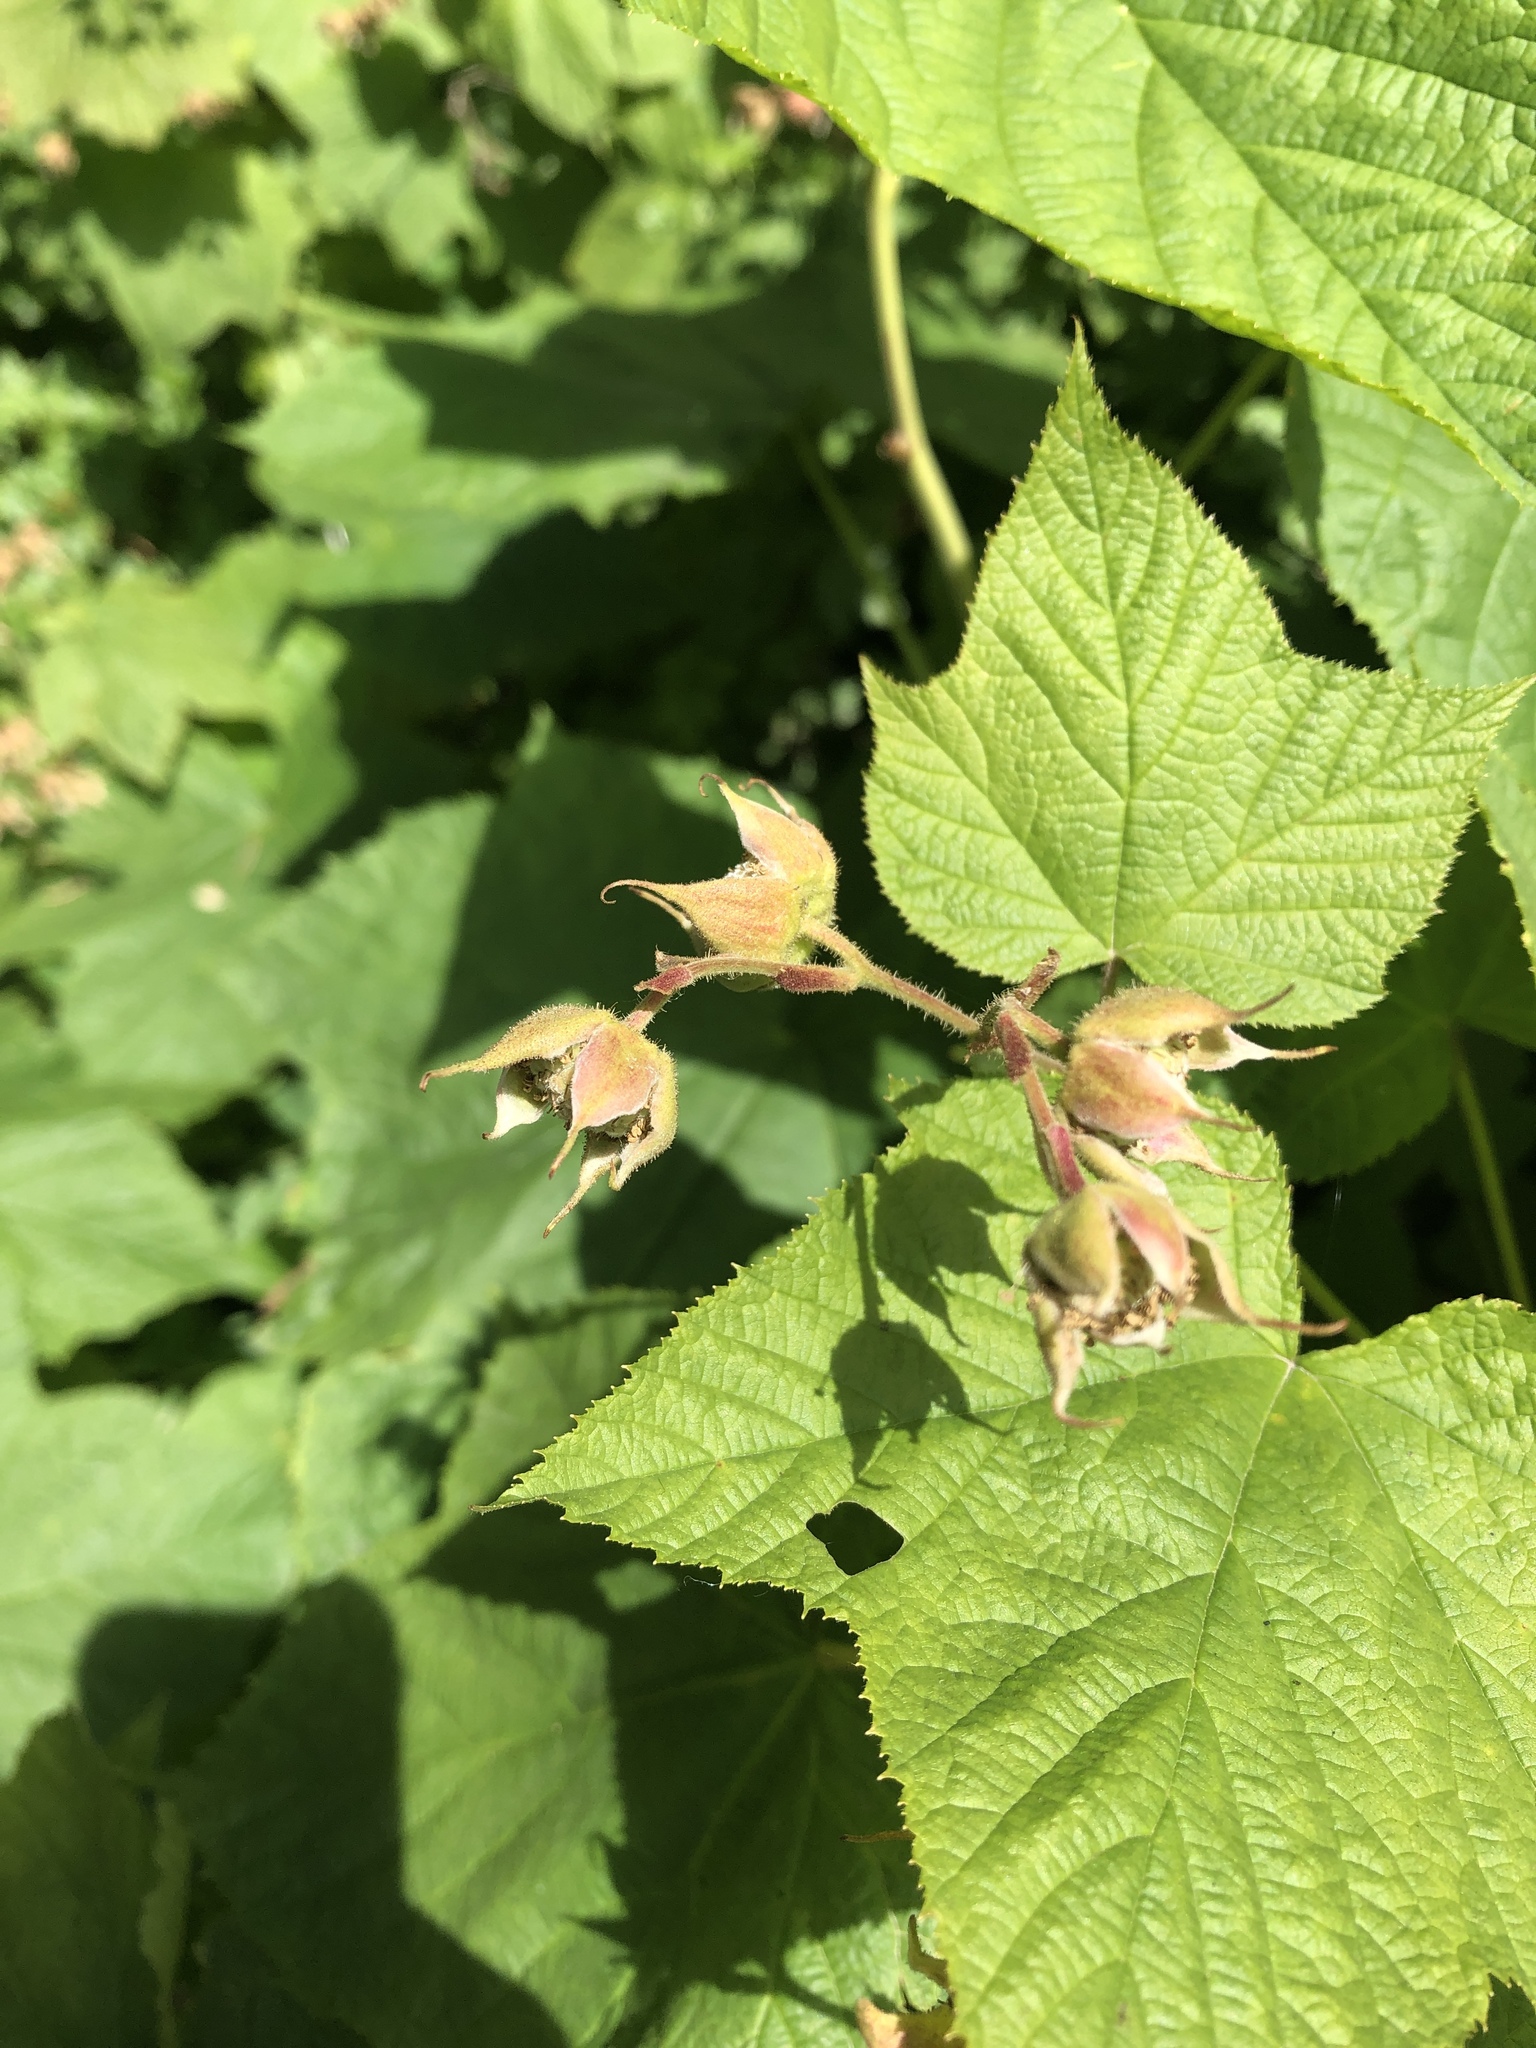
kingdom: Plantae
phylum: Tracheophyta
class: Magnoliopsida
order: Rosales
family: Rosaceae
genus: Rubus
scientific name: Rubus parviflorus
